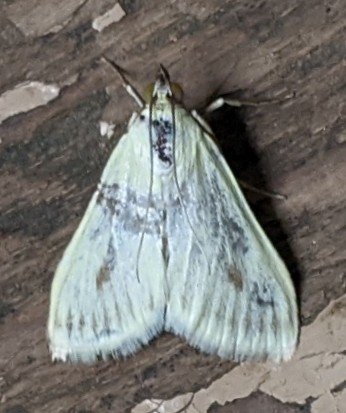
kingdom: Animalia
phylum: Arthropoda
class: Insecta
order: Lepidoptera
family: Crambidae
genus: Sitochroa
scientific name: Sitochroa palealis
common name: Greenish-yellow sitochroa moth
